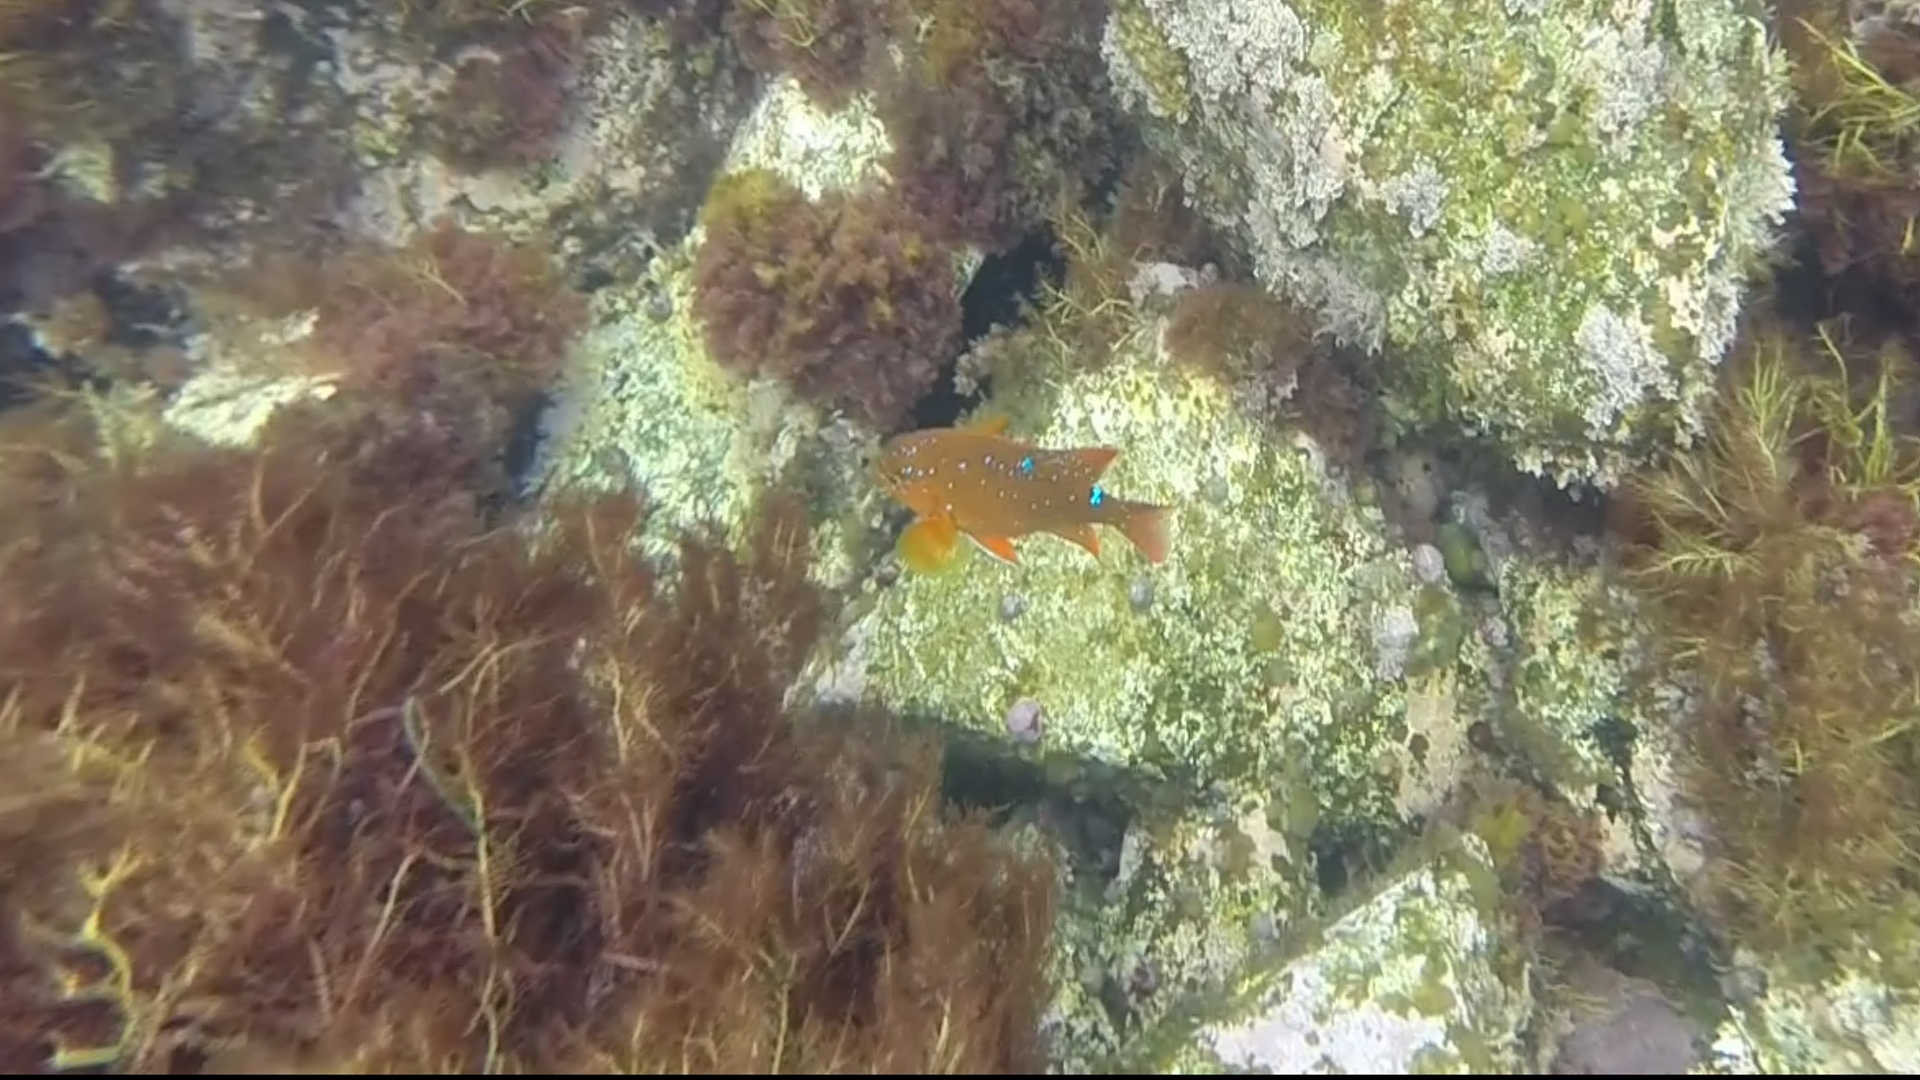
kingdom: Animalia
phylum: Chordata
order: Perciformes
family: Pomacentridae
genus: Hypsypops
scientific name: Hypsypops rubicundus
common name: Garibaldi
